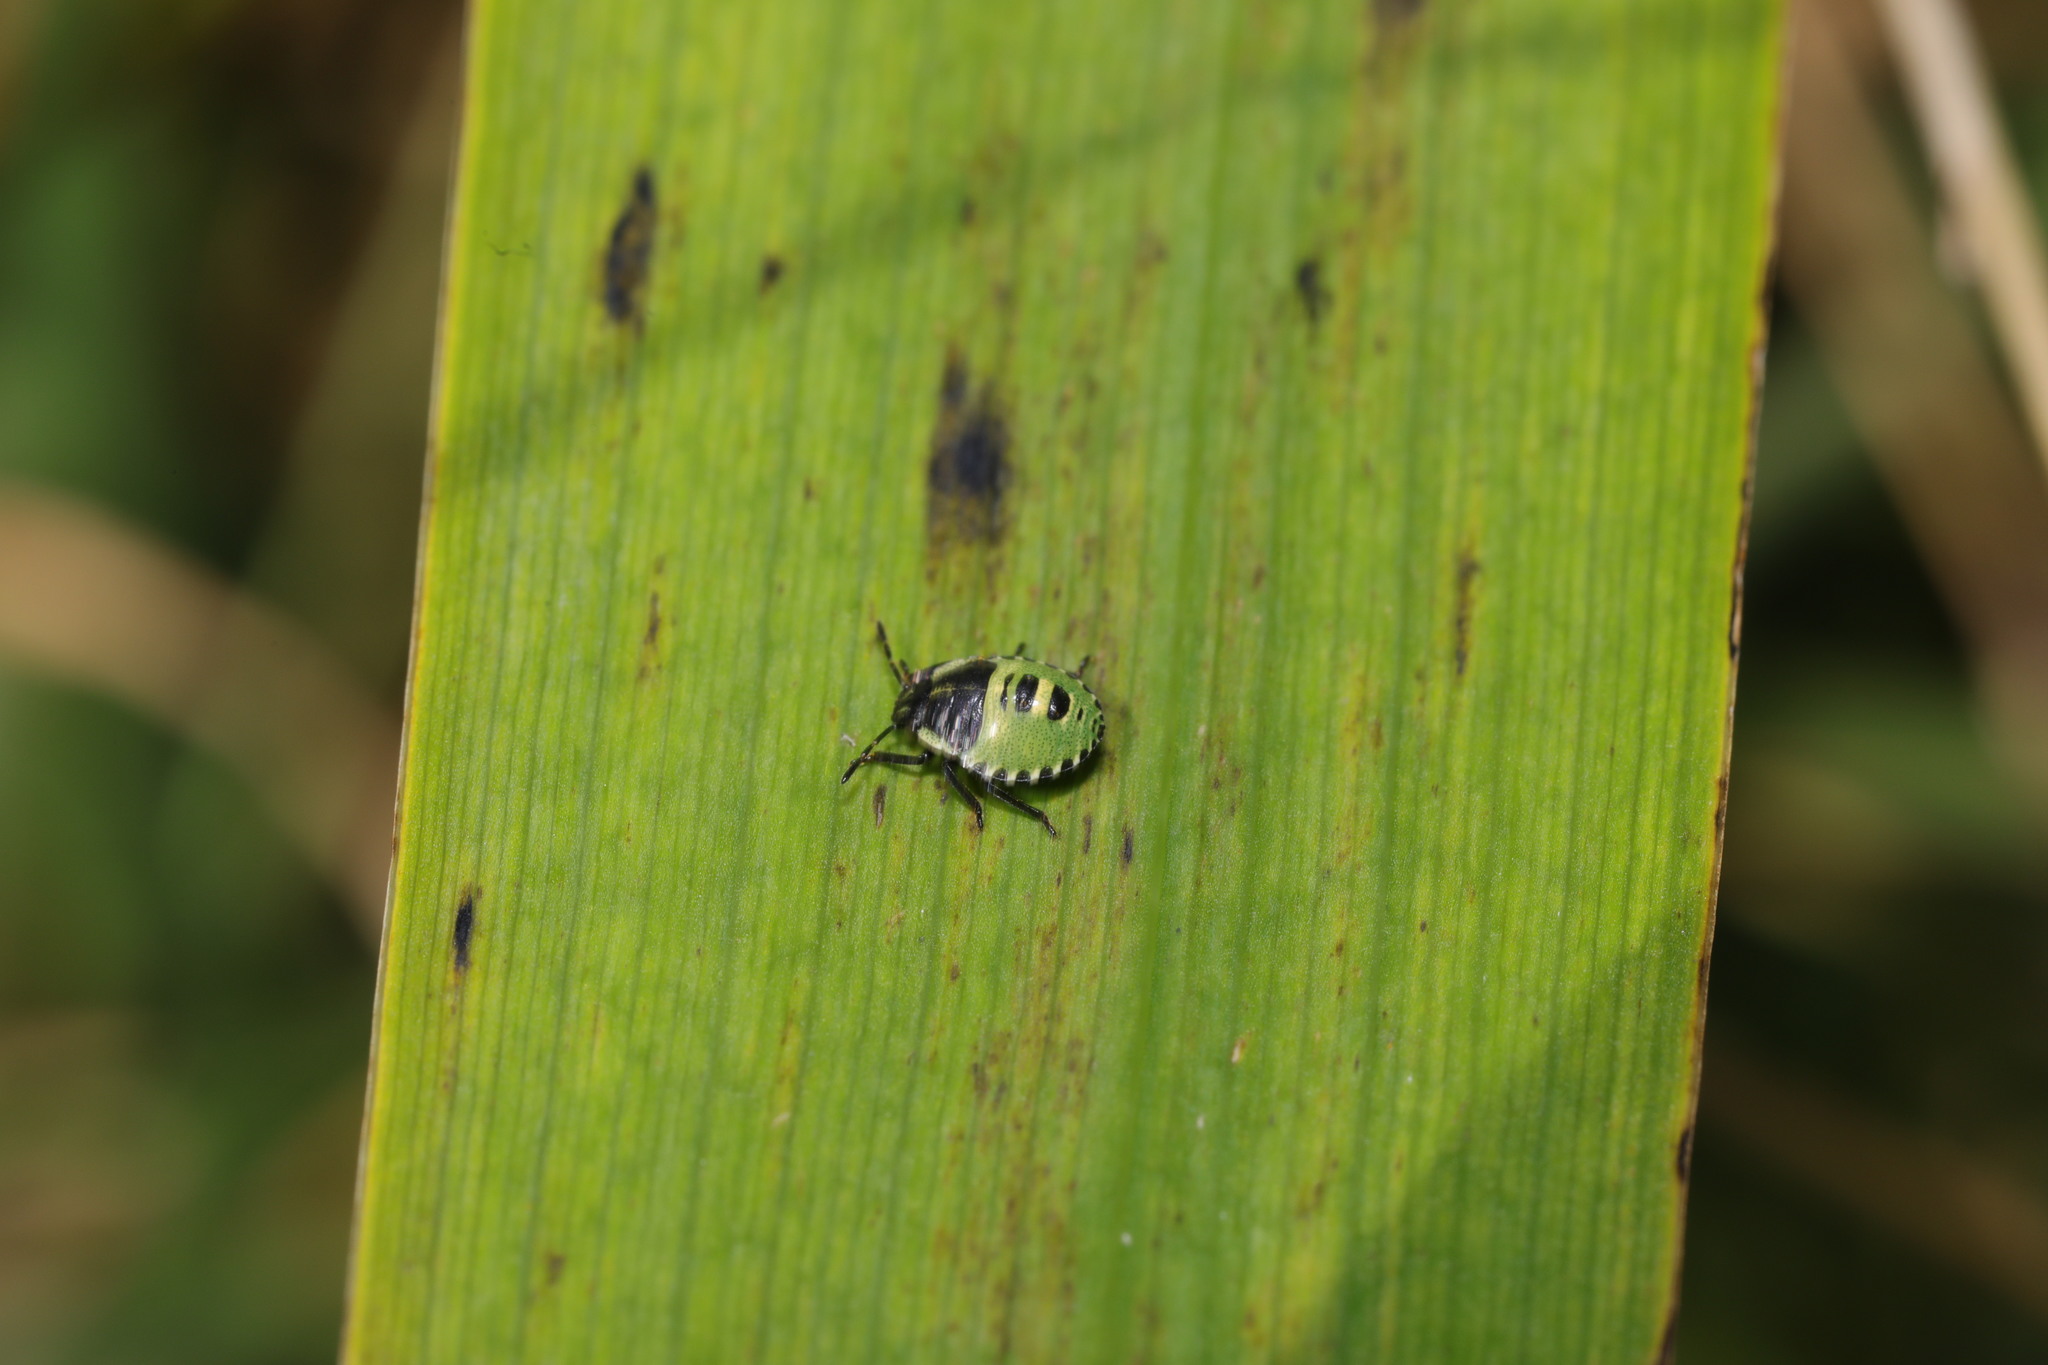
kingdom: Animalia
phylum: Arthropoda
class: Insecta
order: Hemiptera
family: Pentatomidae
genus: Palomena
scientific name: Palomena prasina
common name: Green shieldbug
